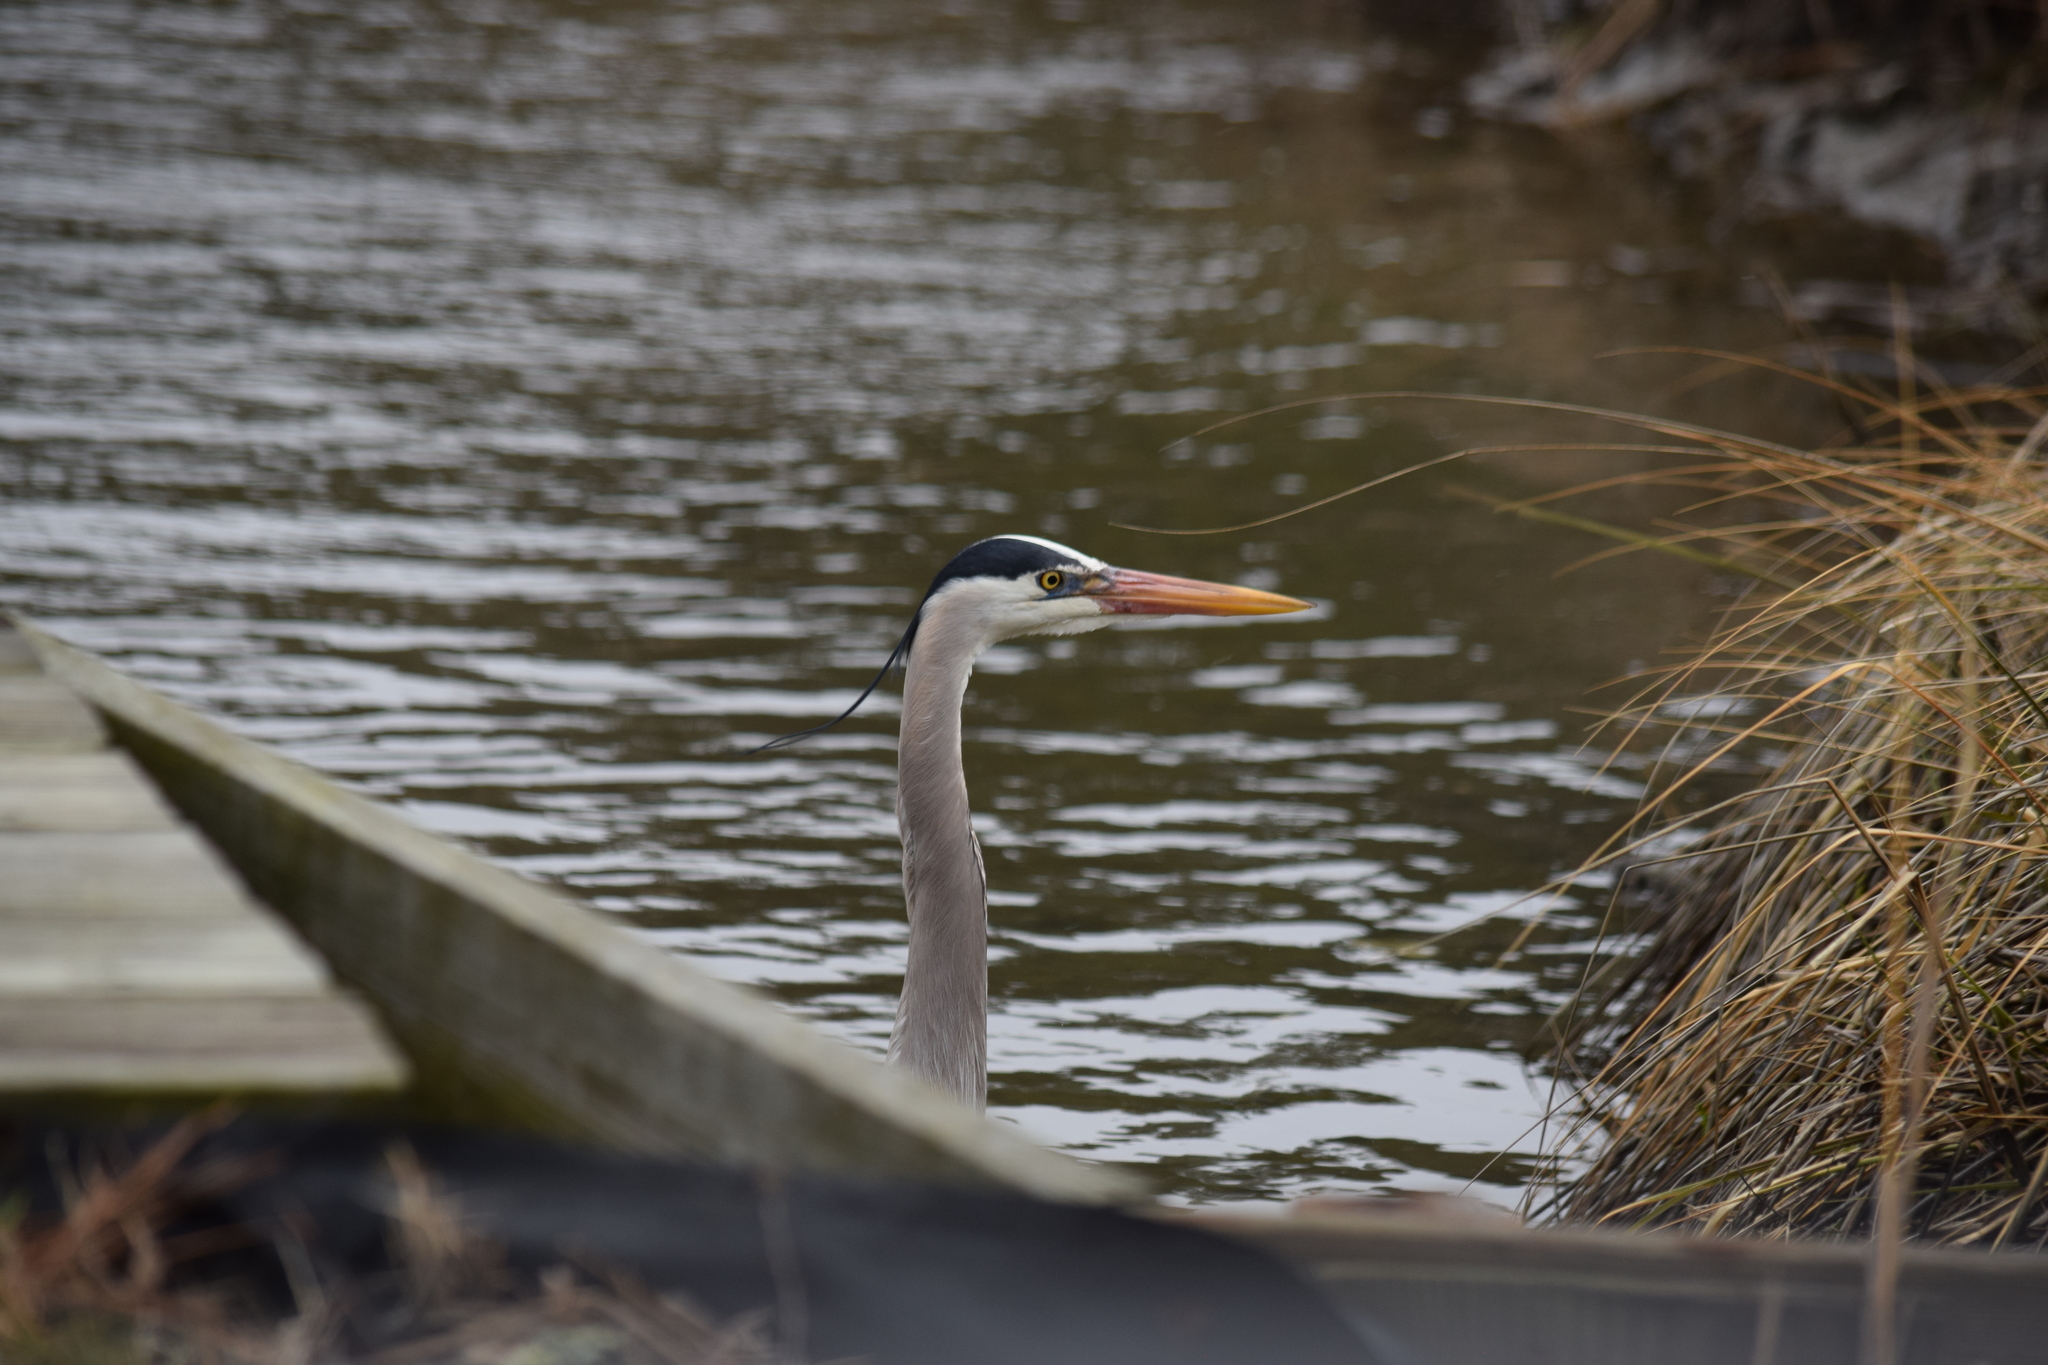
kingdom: Animalia
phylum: Chordata
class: Aves
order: Pelecaniformes
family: Ardeidae
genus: Ardea
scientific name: Ardea herodias
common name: Great blue heron
